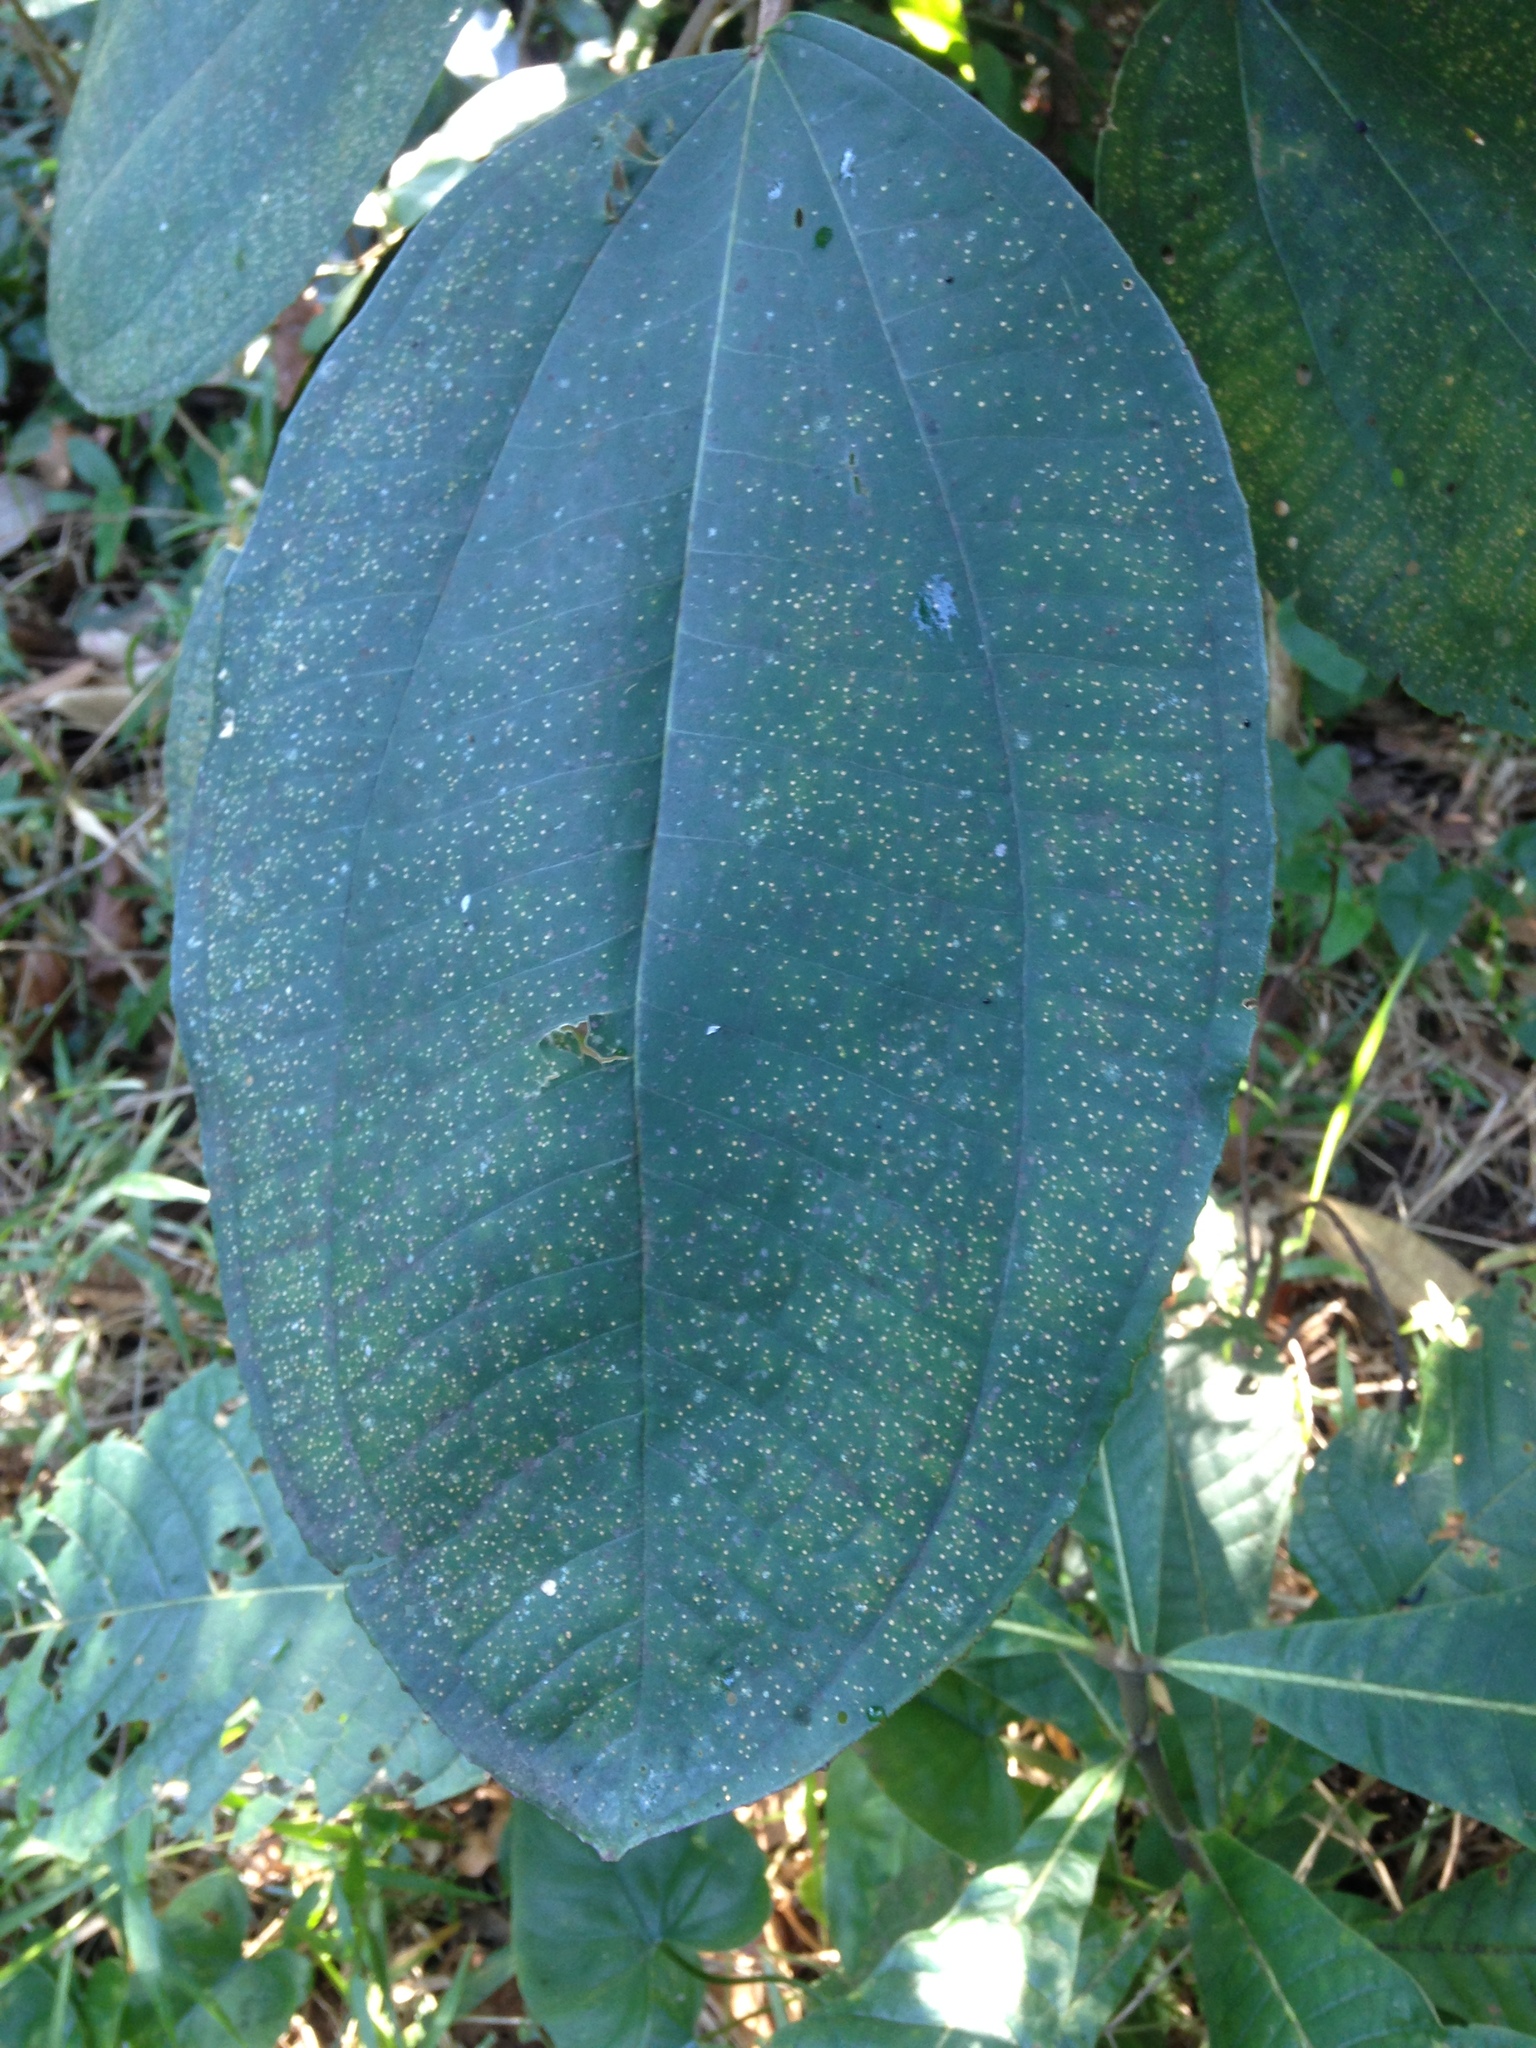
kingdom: Plantae
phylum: Tracheophyta
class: Magnoliopsida
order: Myrtales
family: Melastomataceae
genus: Miconia
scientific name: Miconia argentea
